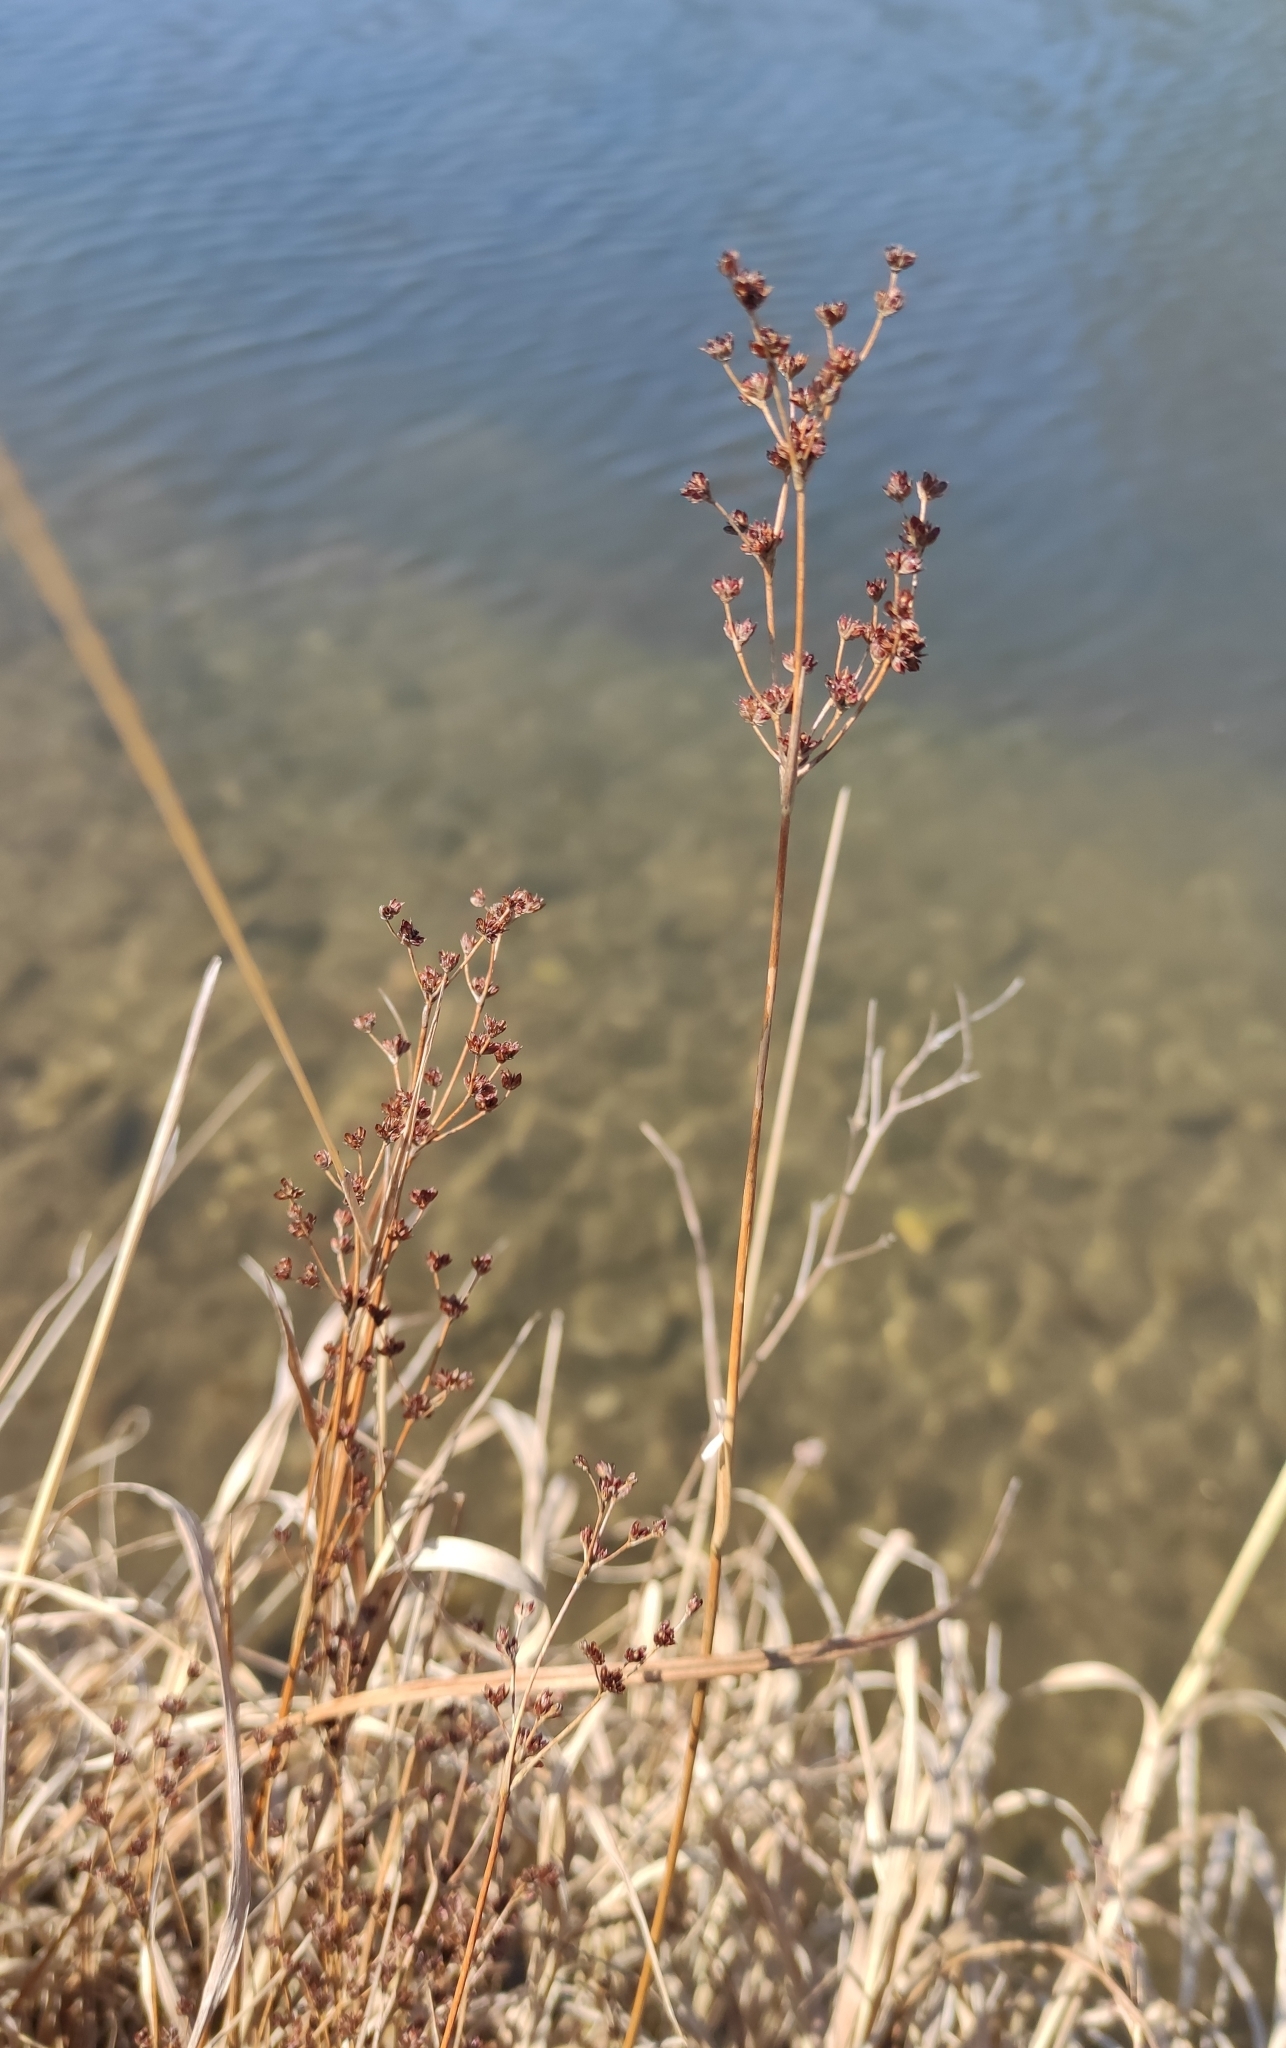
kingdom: Plantae
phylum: Tracheophyta
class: Liliopsida
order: Poales
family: Juncaceae
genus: Juncus
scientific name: Juncus articulatus
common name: Jointed rush
